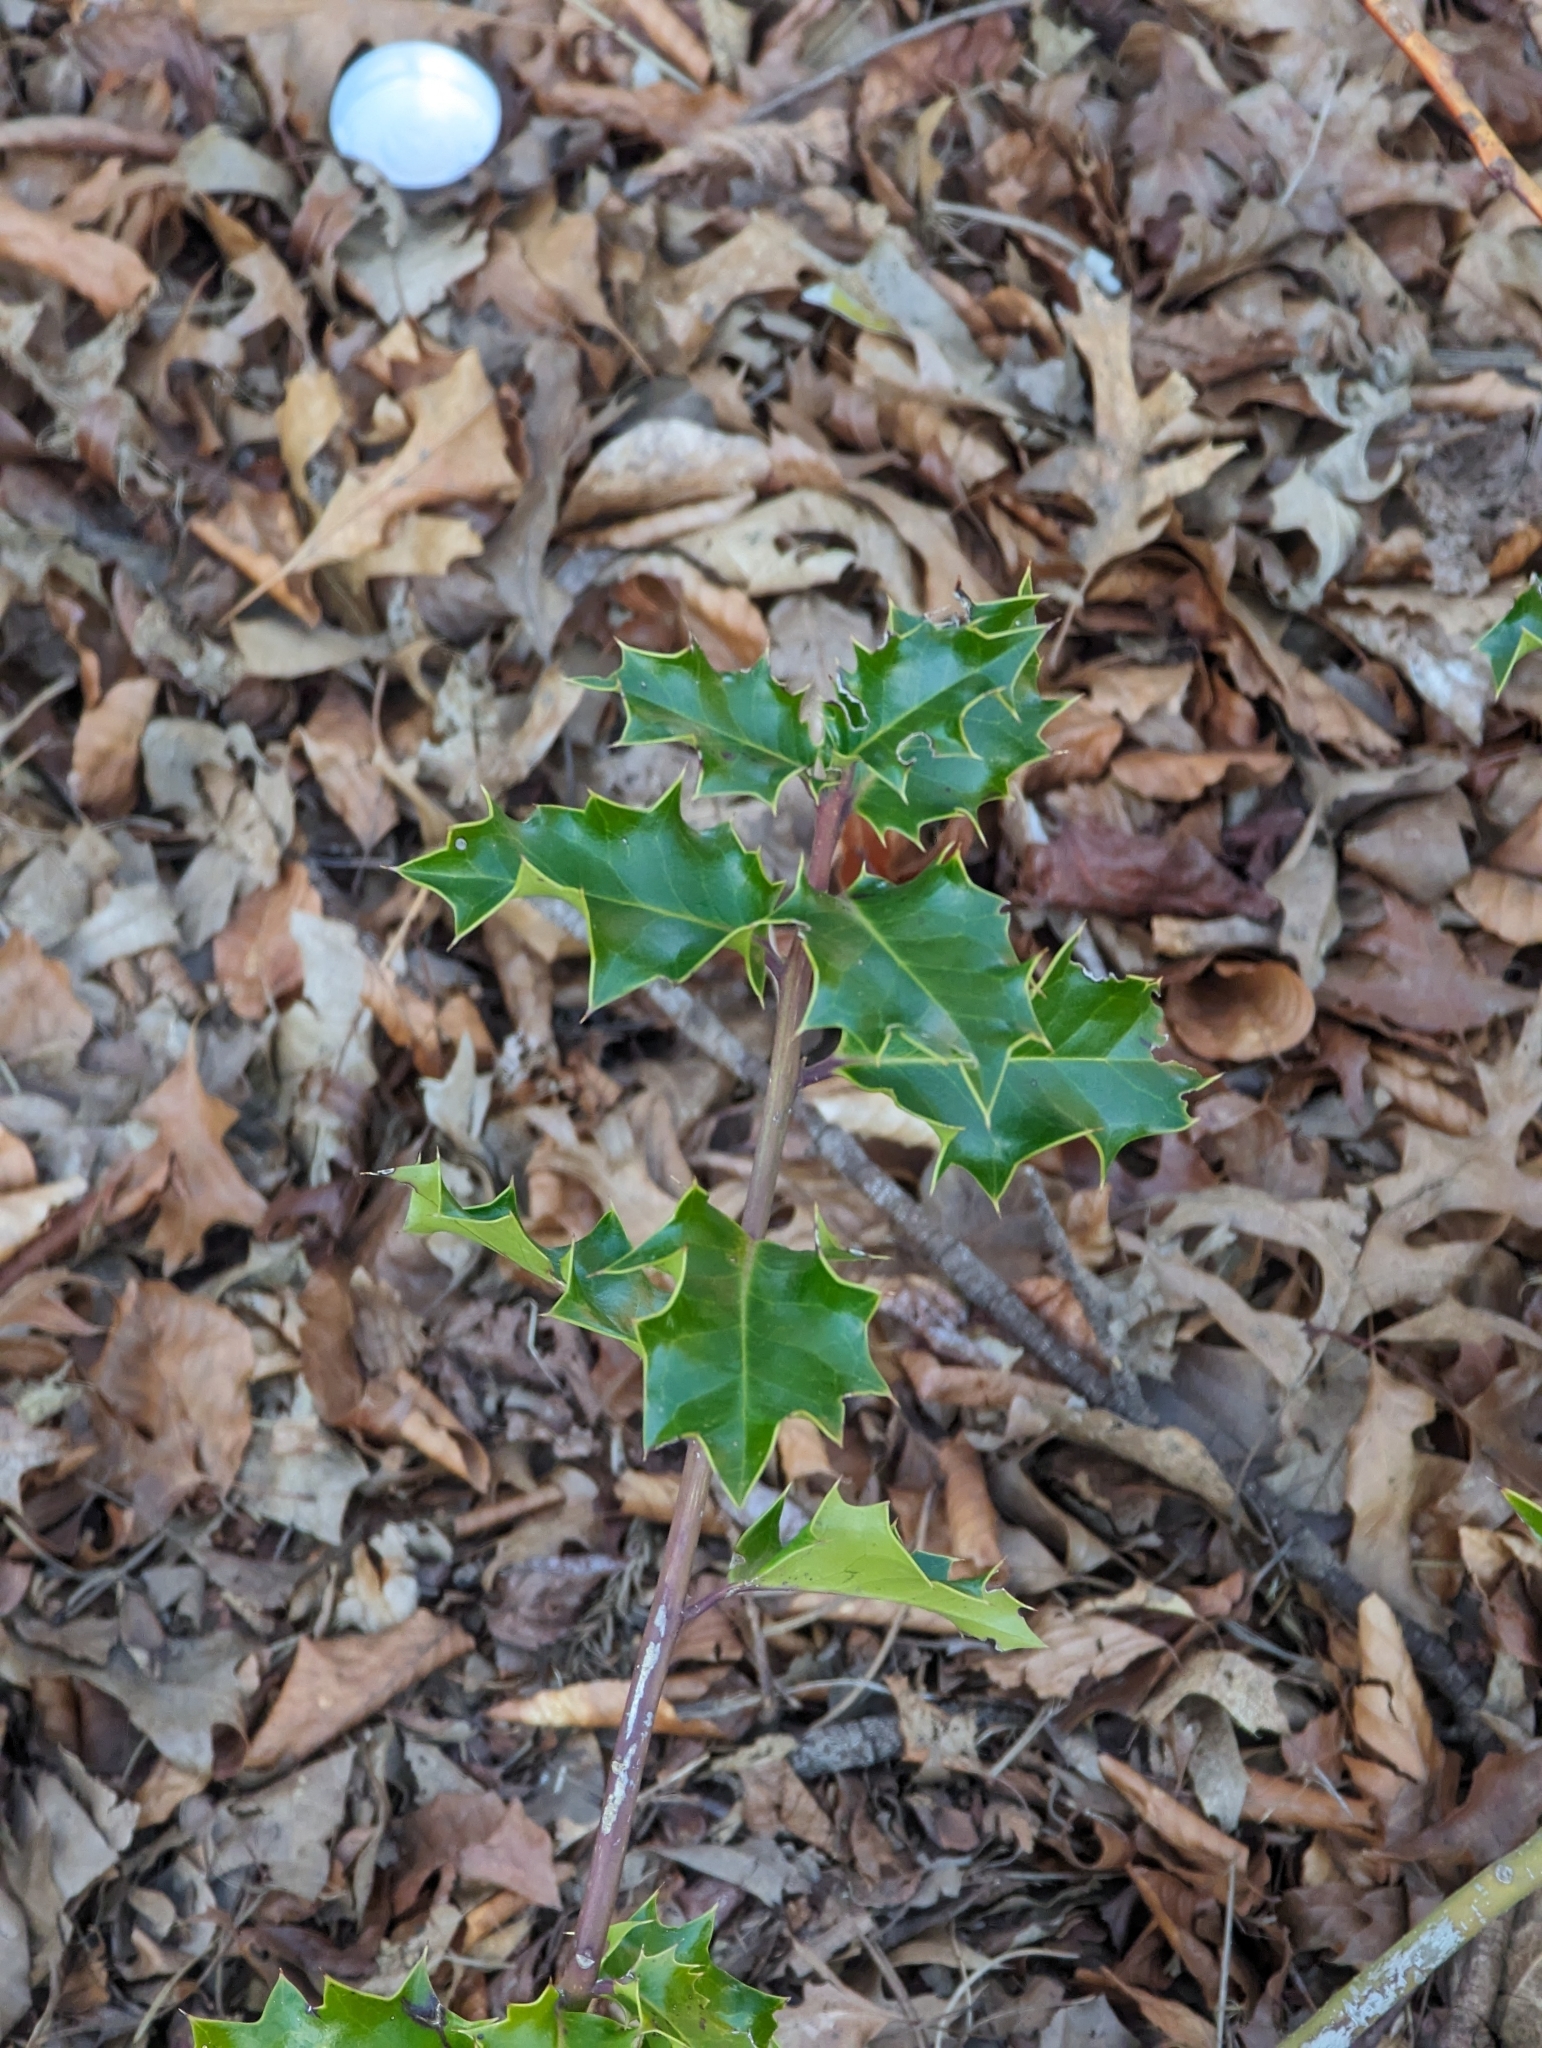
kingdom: Plantae
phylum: Tracheophyta
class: Magnoliopsida
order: Aquifoliales
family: Aquifoliaceae
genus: Ilex
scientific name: Ilex aquifolium
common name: English holly
